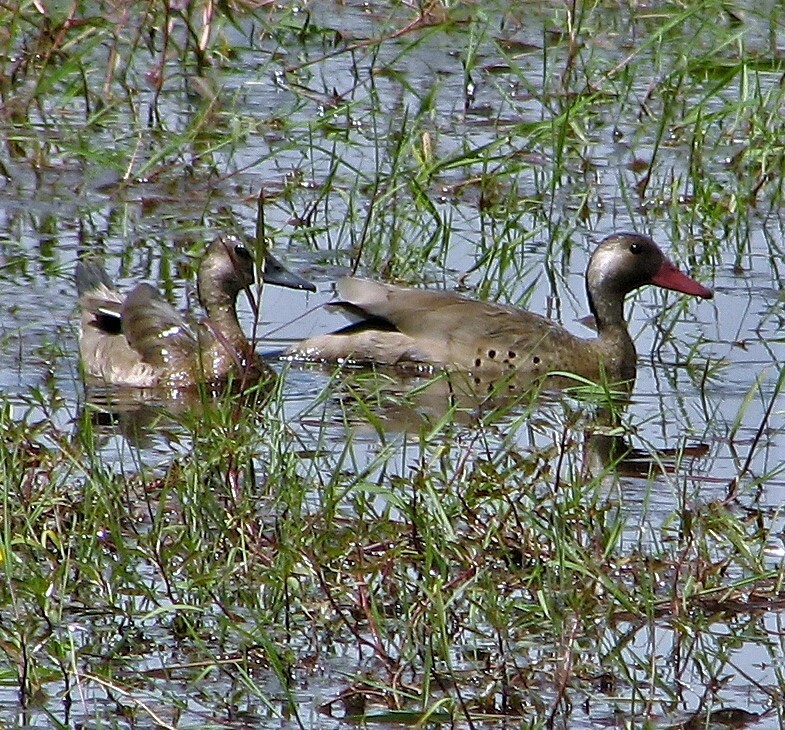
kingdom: Animalia
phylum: Chordata
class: Aves
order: Anseriformes
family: Anatidae
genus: Amazonetta
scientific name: Amazonetta brasiliensis
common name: Brazilian teal
